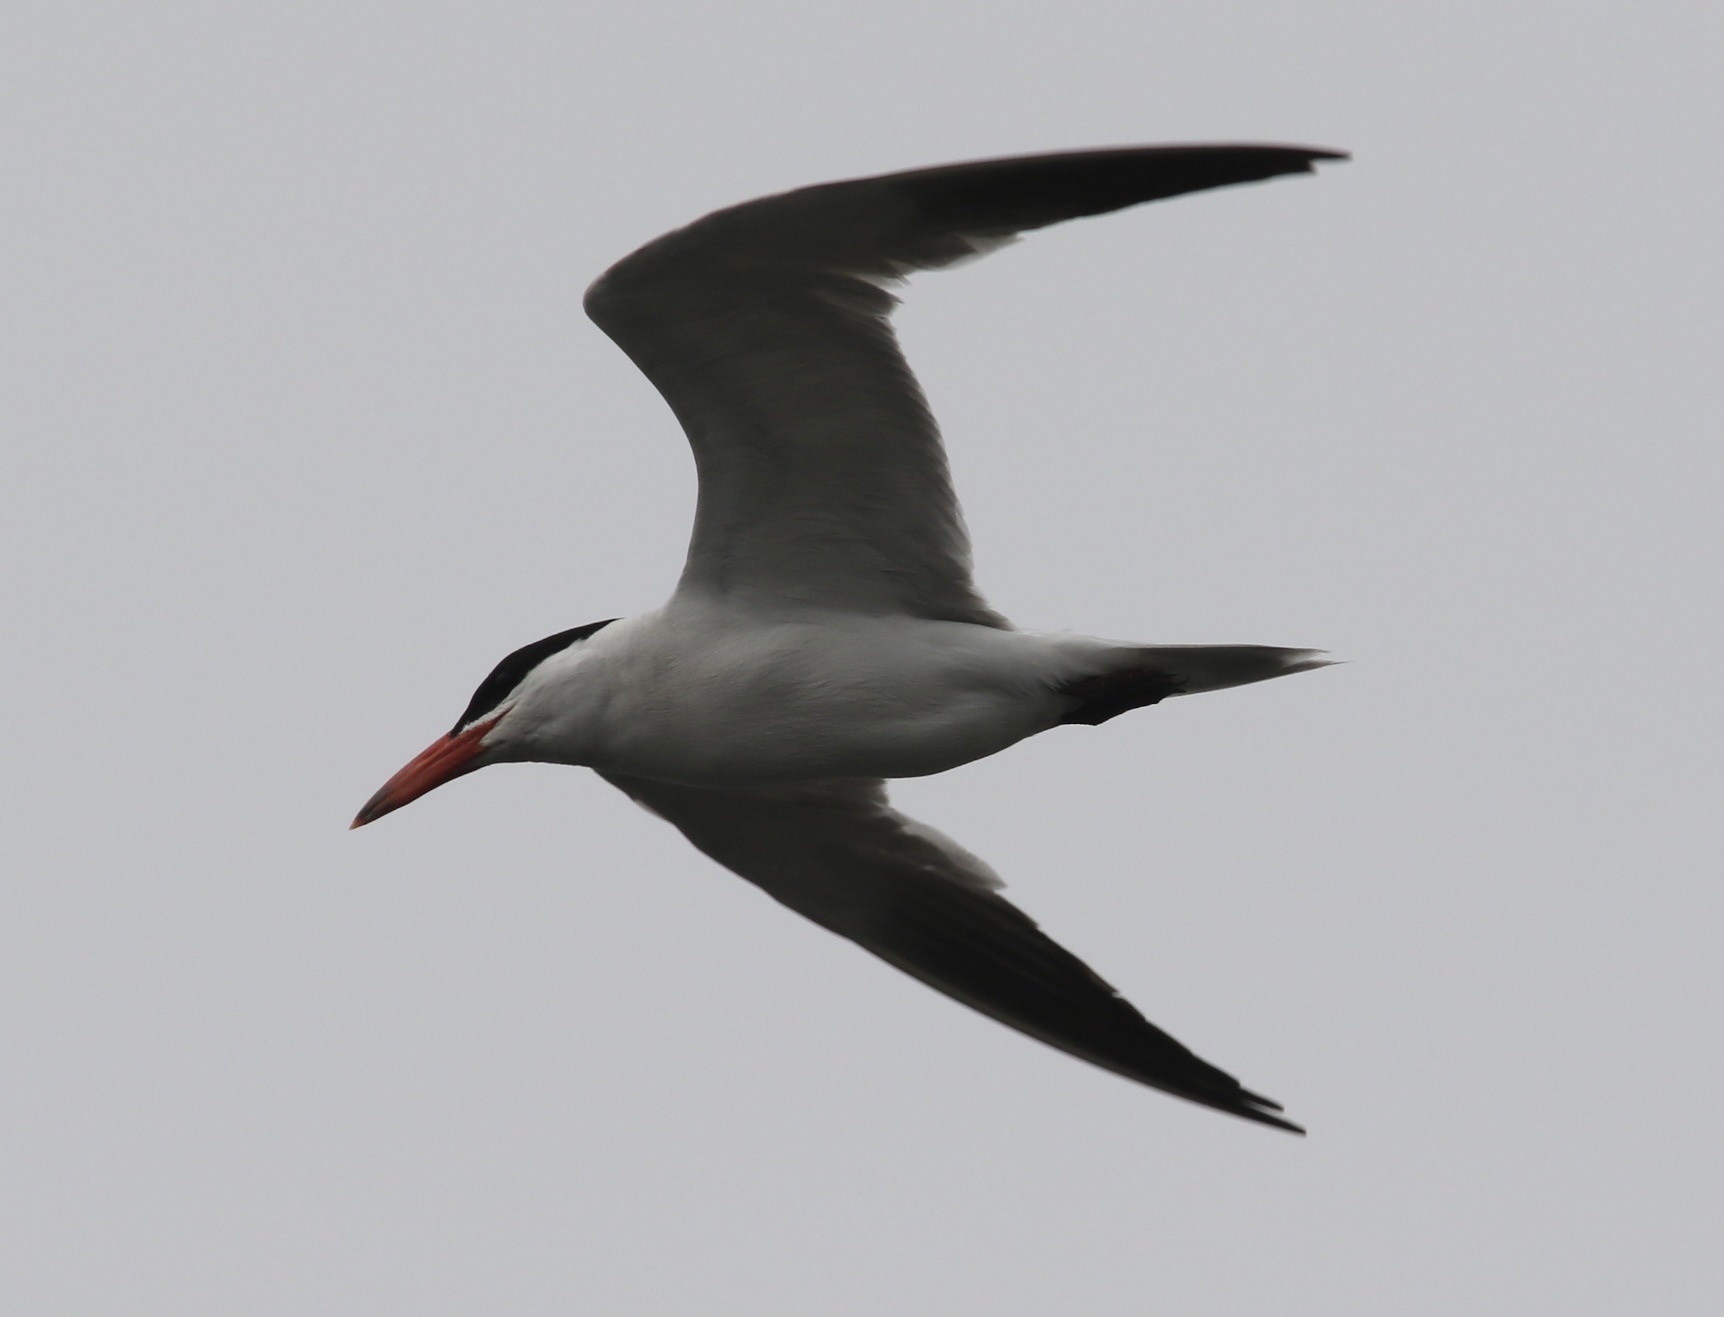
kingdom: Animalia
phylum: Chordata
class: Aves
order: Charadriiformes
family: Laridae
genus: Hydroprogne
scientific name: Hydroprogne caspia
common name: Caspian tern
